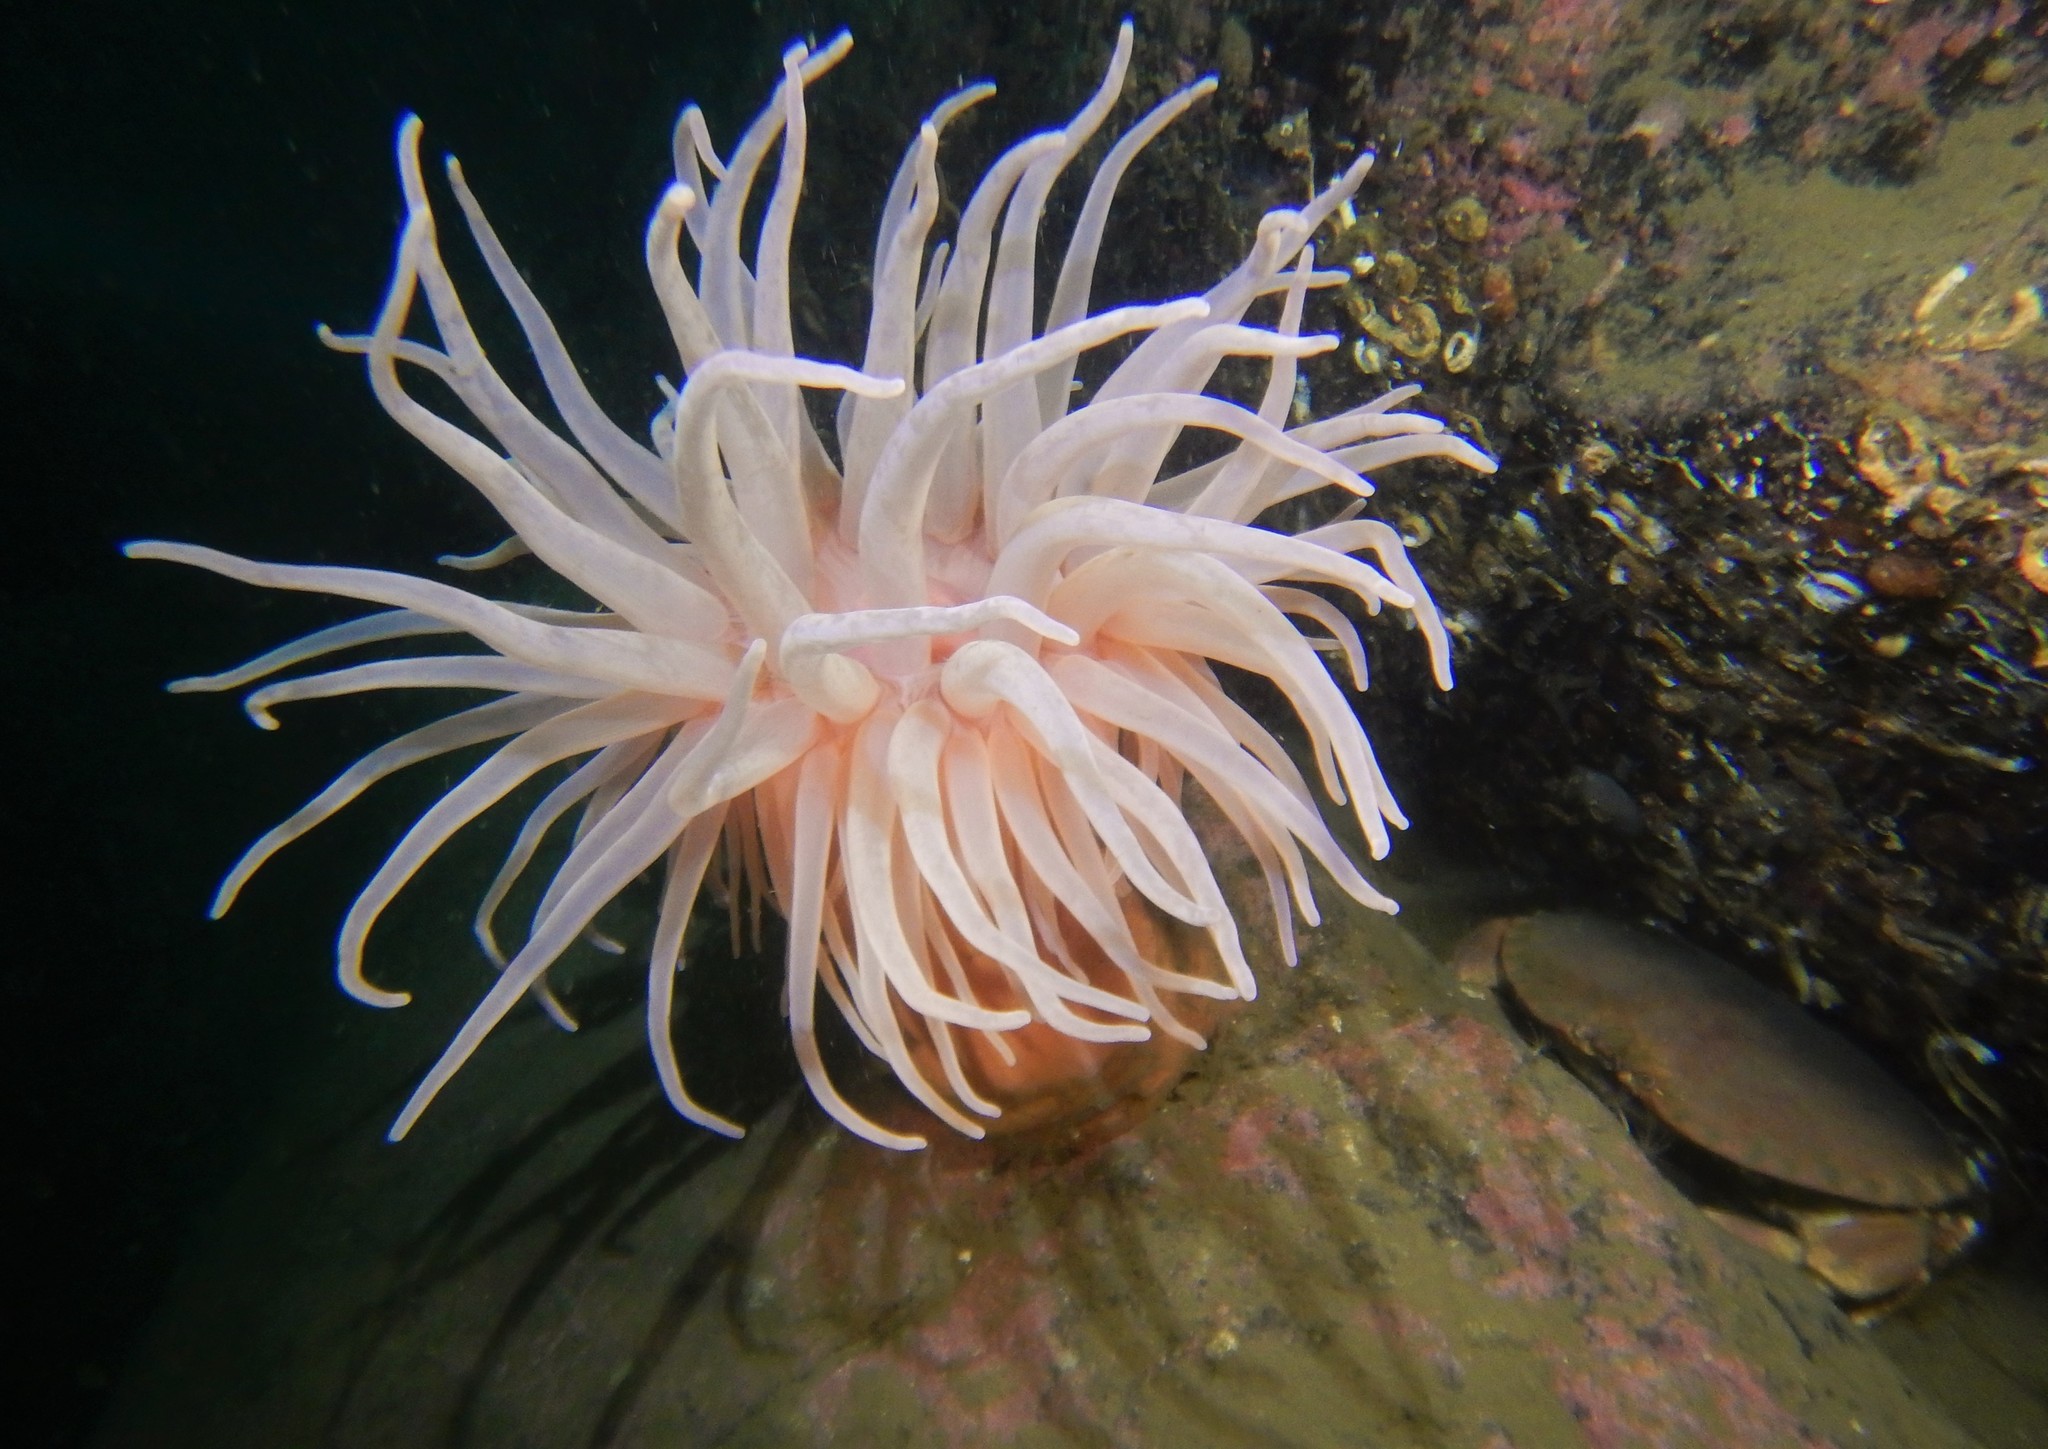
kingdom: Animalia
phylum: Cnidaria
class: Anthozoa
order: Actiniaria
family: Actiniidae
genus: Bolocera
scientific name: Bolocera tuediae
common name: Deeplet sea anemone
